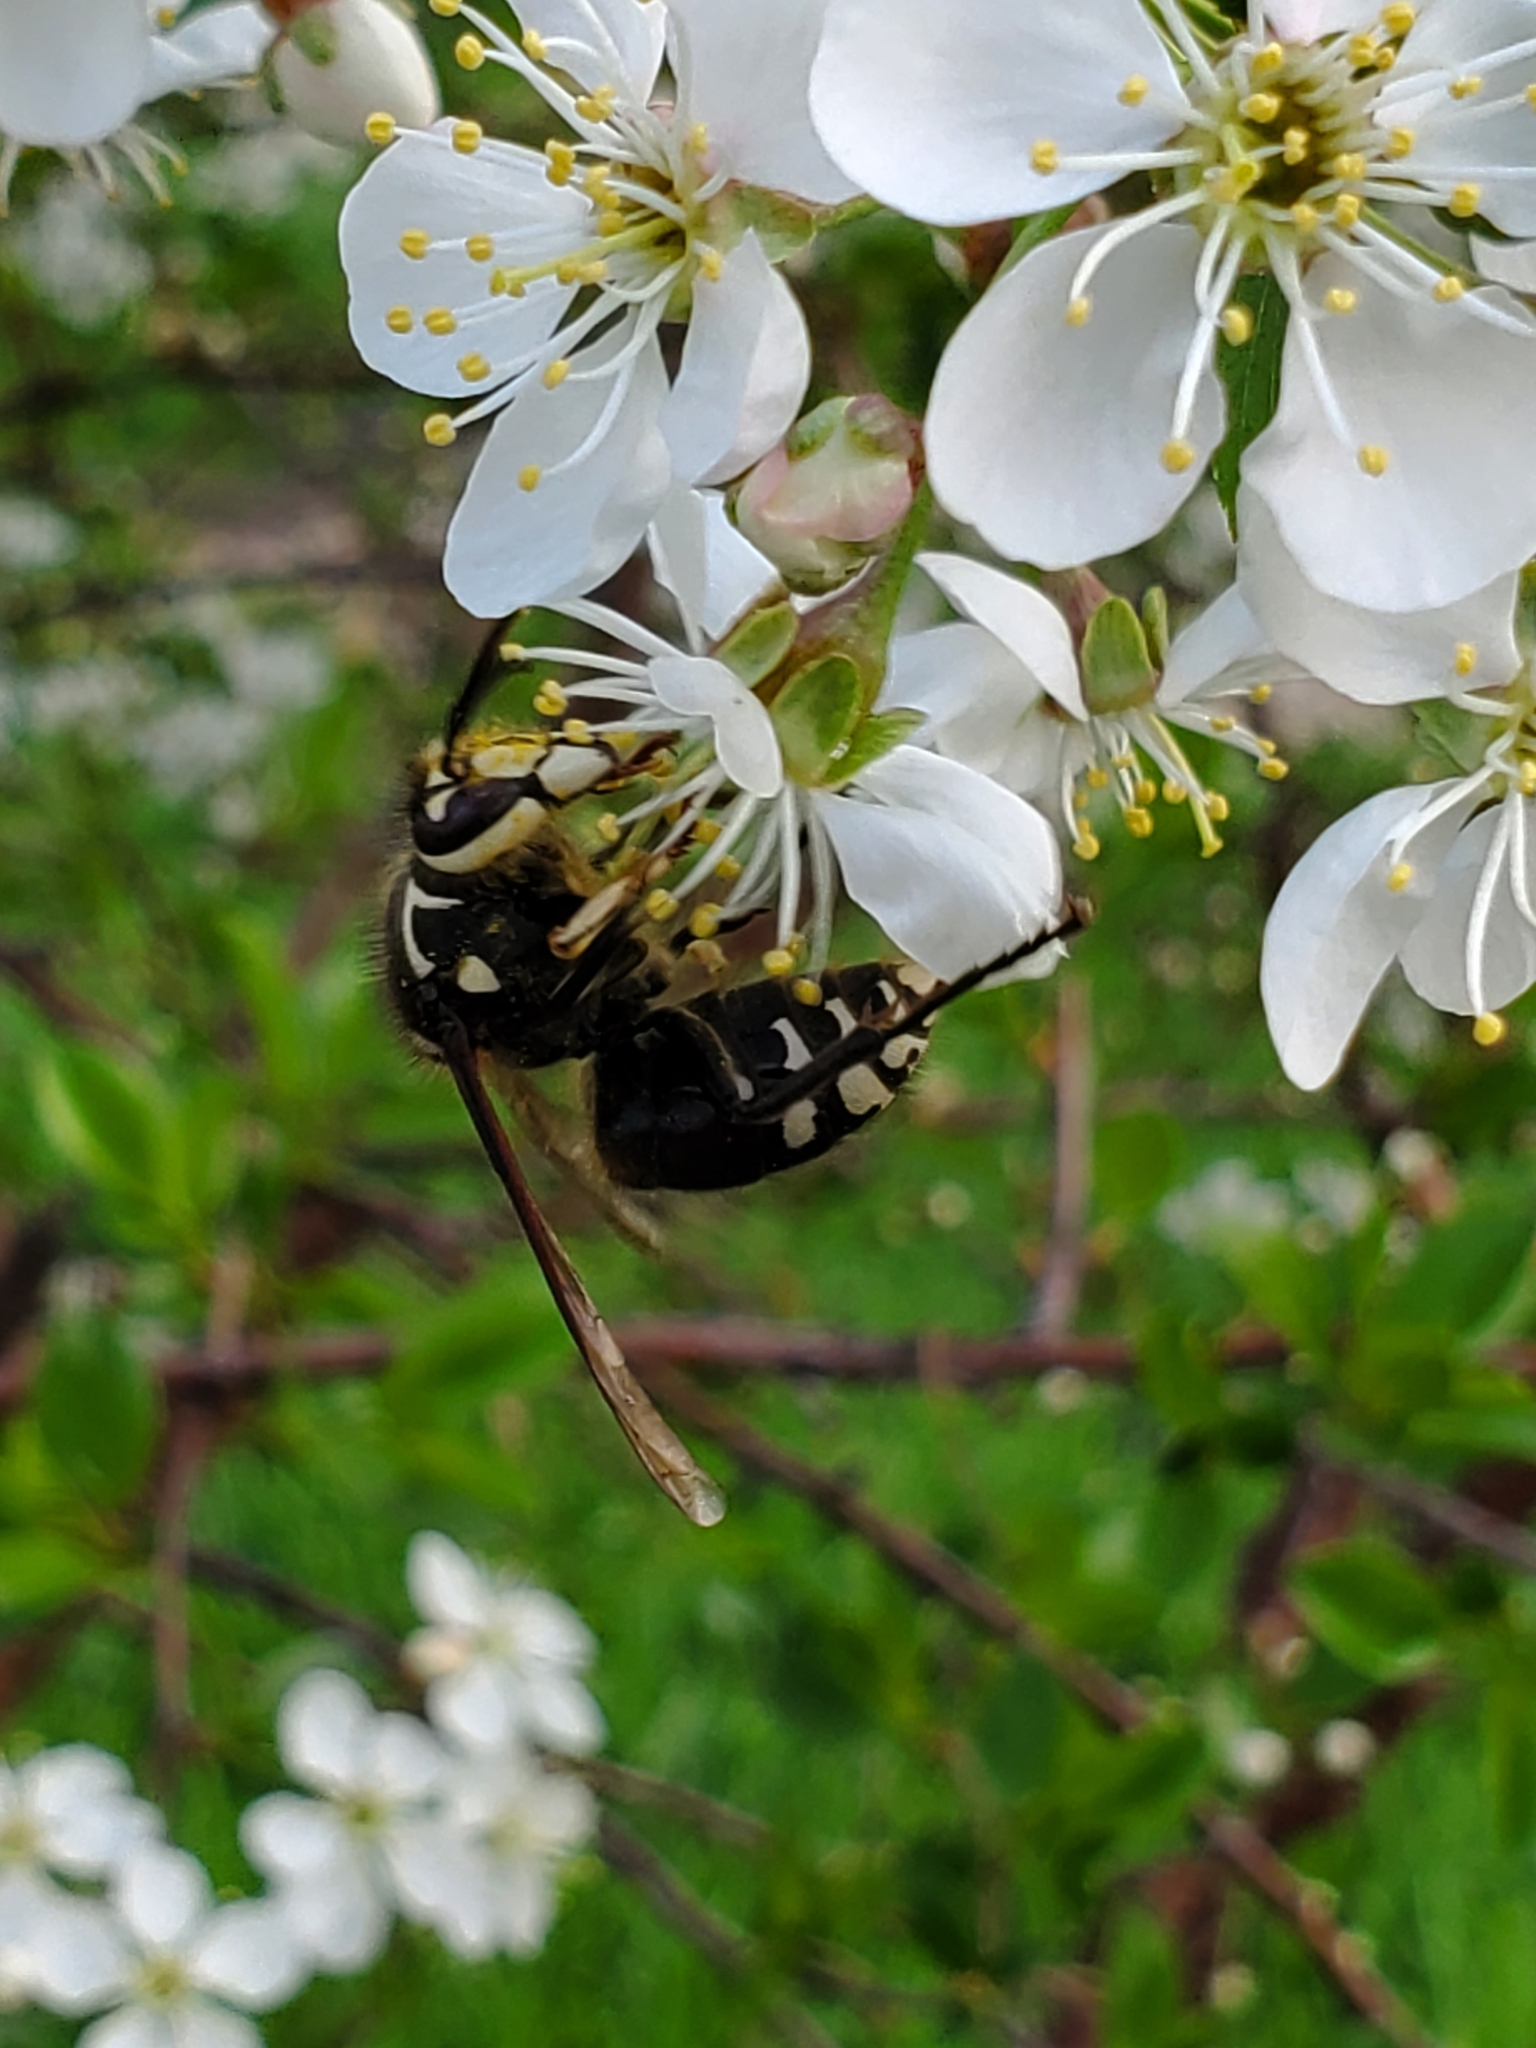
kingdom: Animalia
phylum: Arthropoda
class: Insecta
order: Hymenoptera
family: Vespidae
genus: Dolichovespula
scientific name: Dolichovespula maculata
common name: Bald-faced hornet
